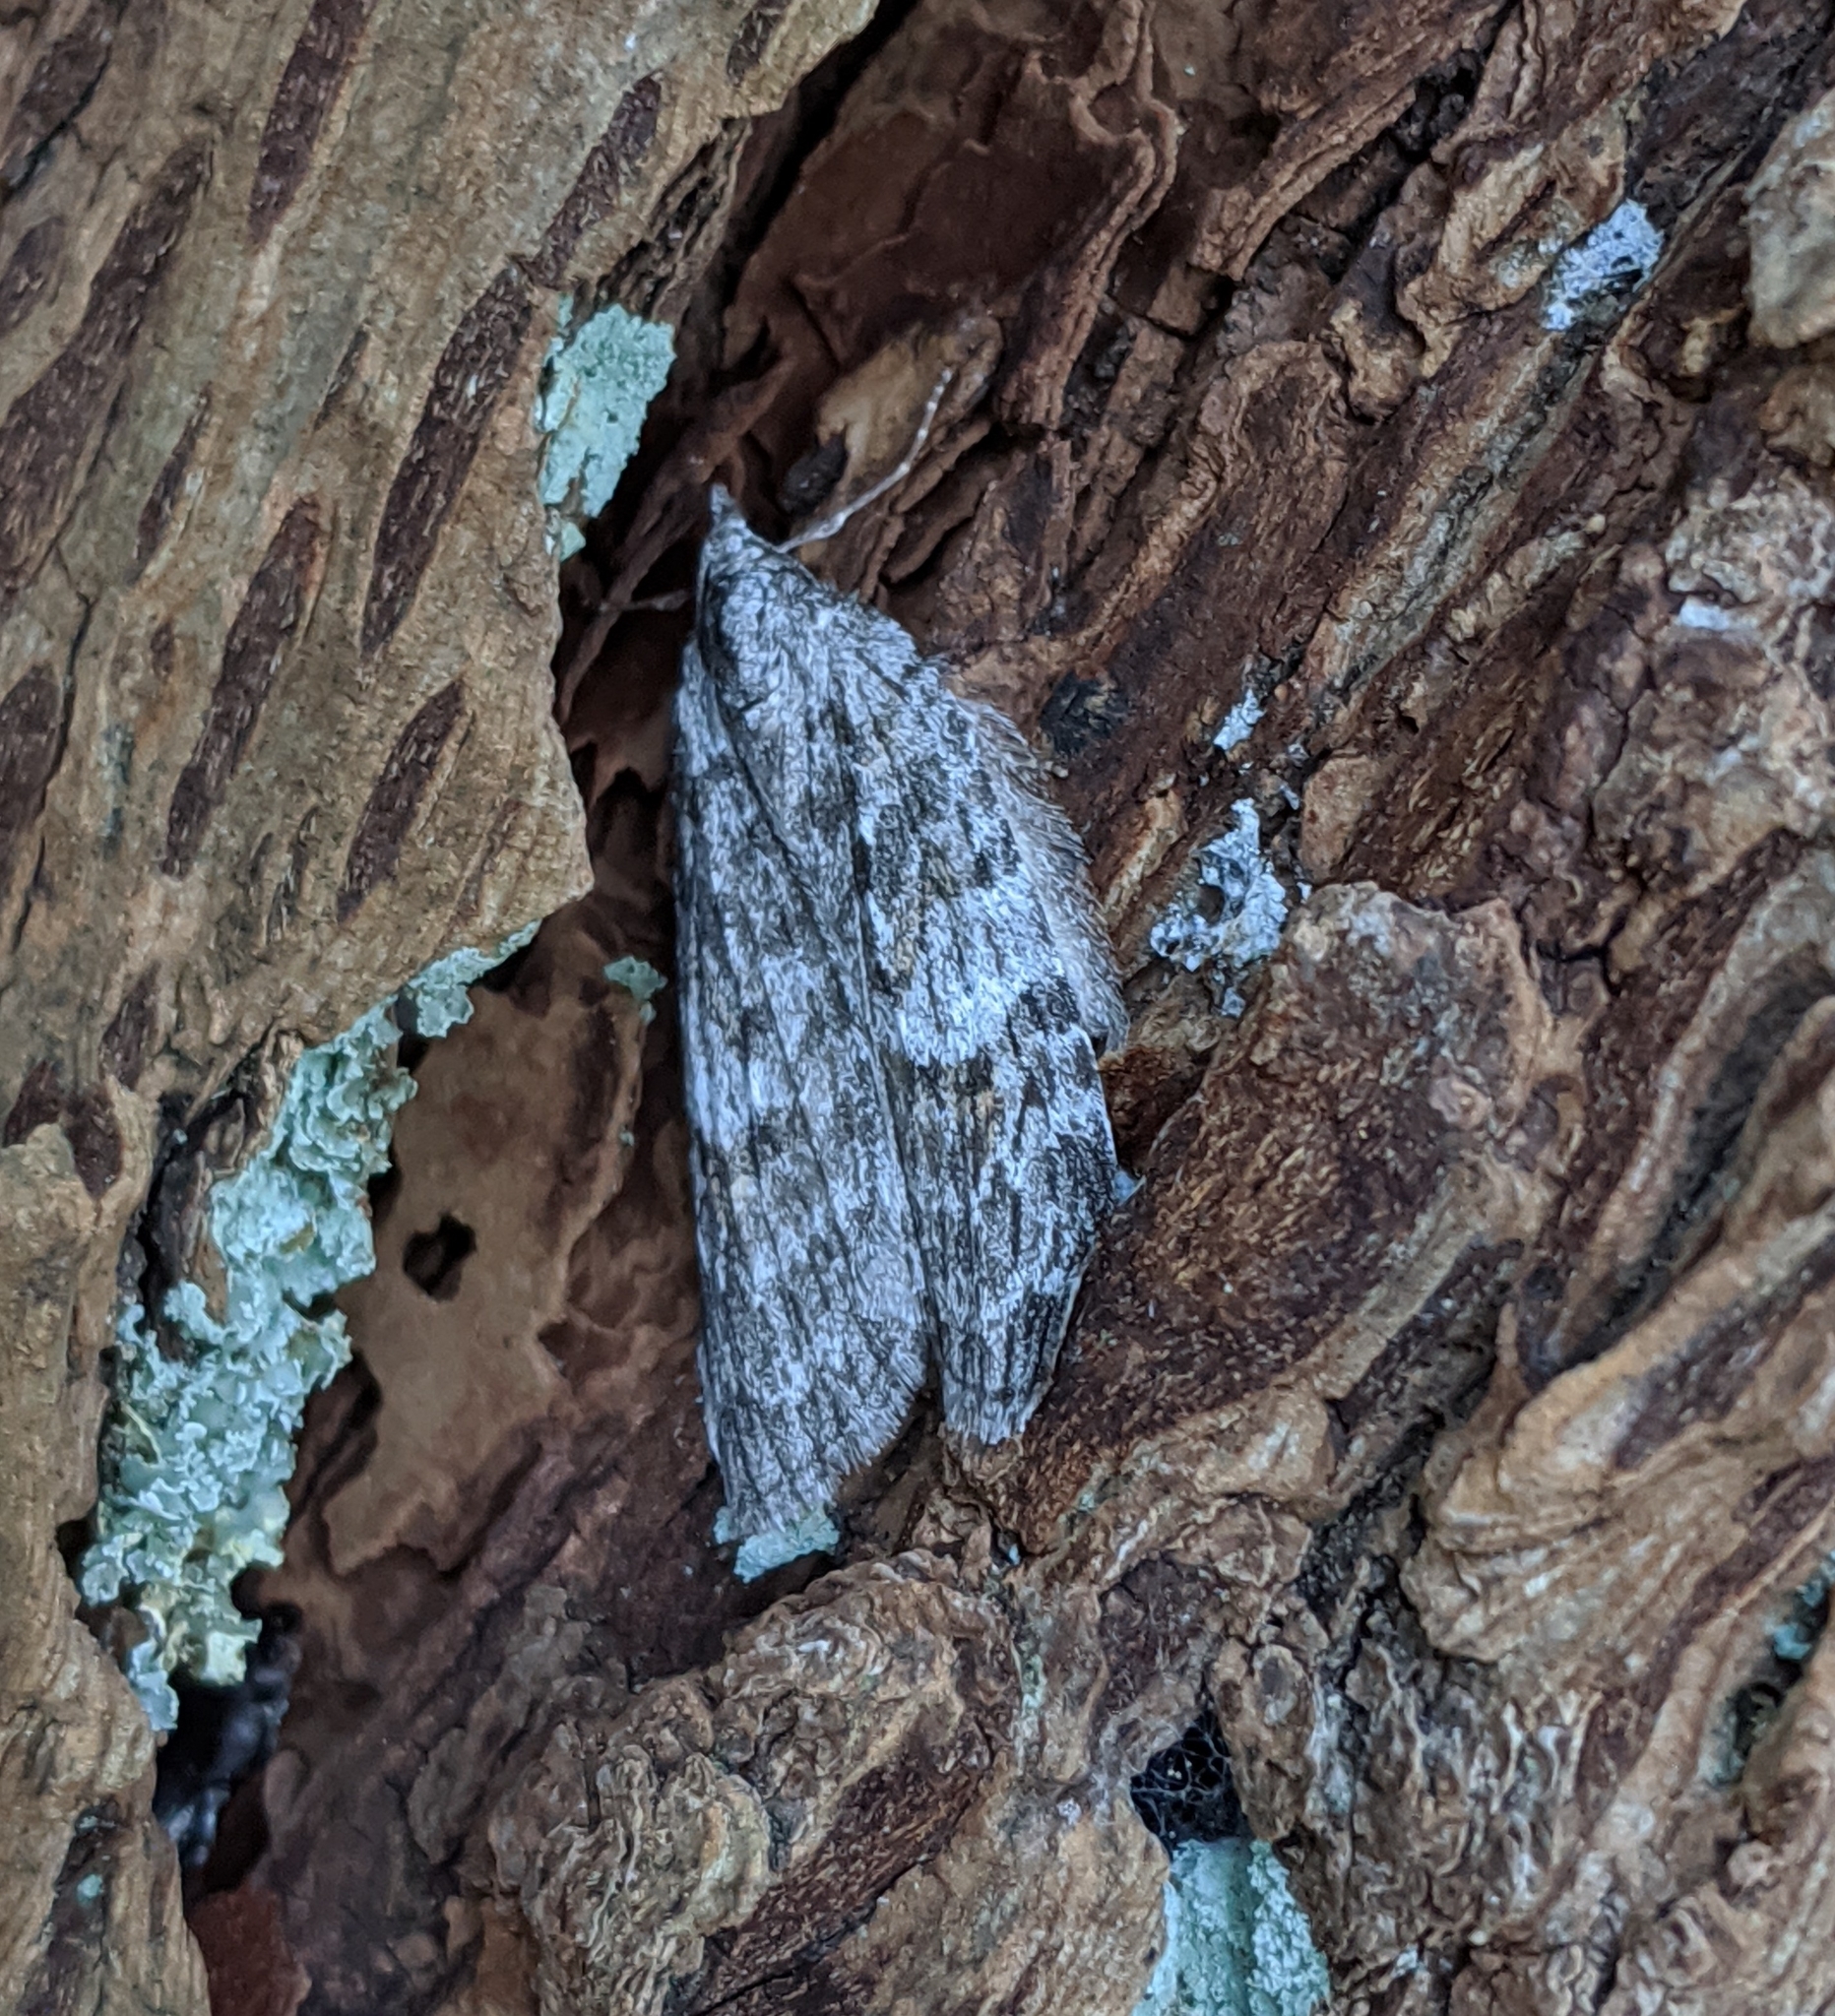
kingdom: Animalia
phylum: Arthropoda
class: Insecta
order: Lepidoptera
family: Geometridae
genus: Hydriomena
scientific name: Hydriomena manzanita
